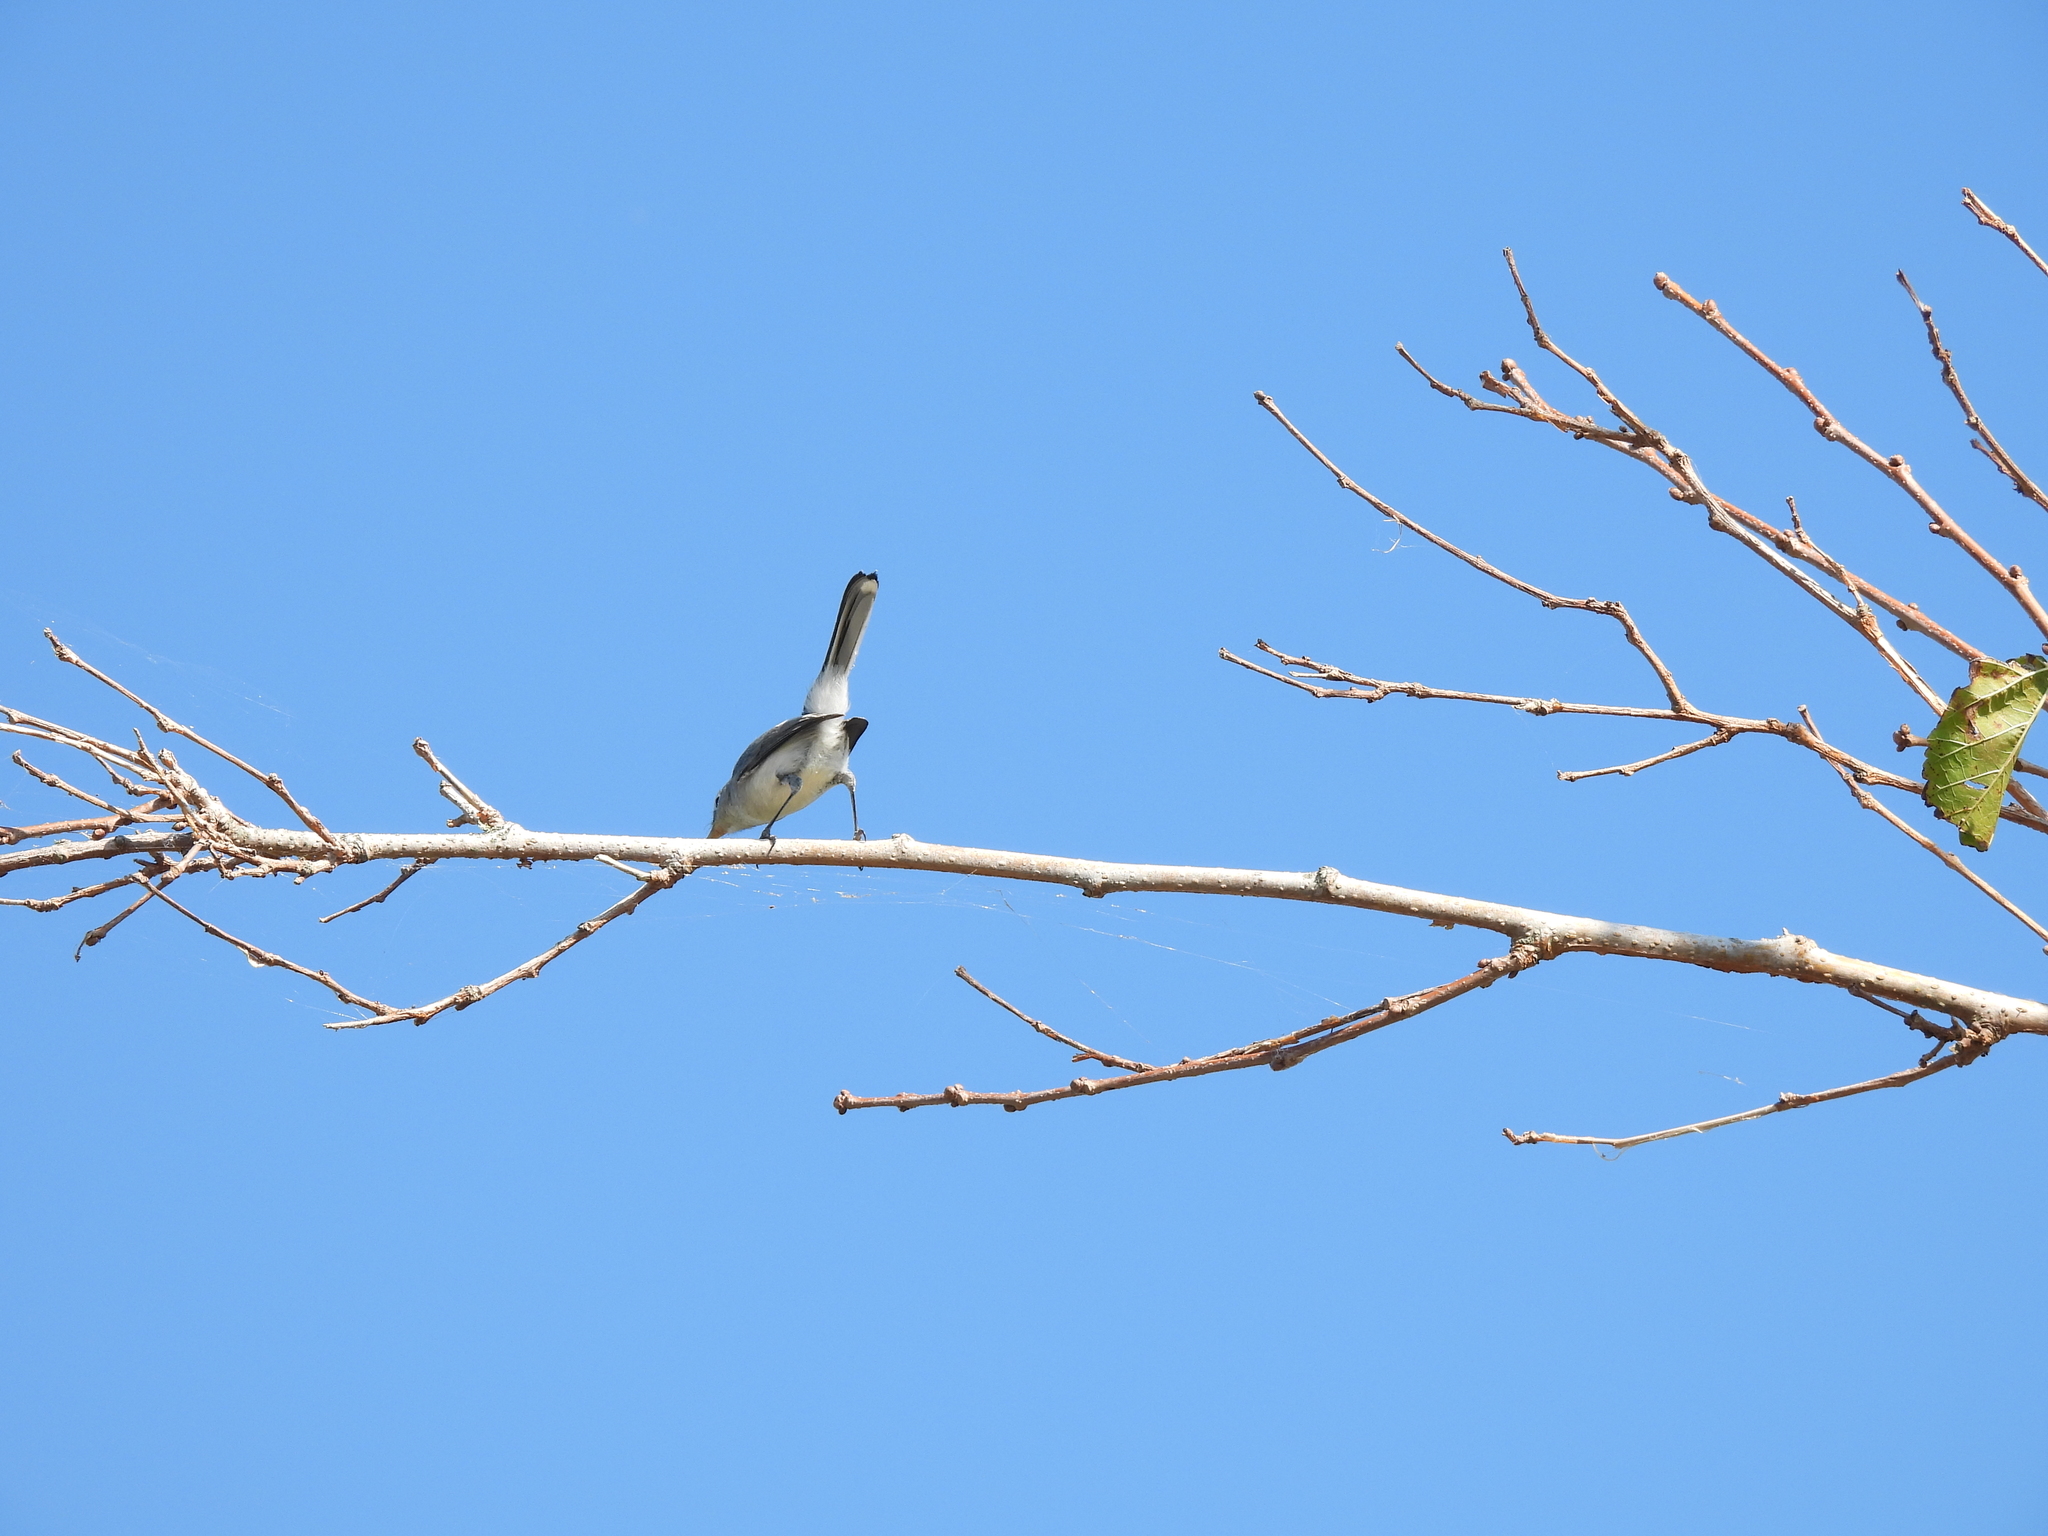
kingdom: Animalia
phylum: Chordata
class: Aves
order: Passeriformes
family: Polioptilidae
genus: Polioptila
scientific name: Polioptila caerulea
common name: Blue-gray gnatcatcher
